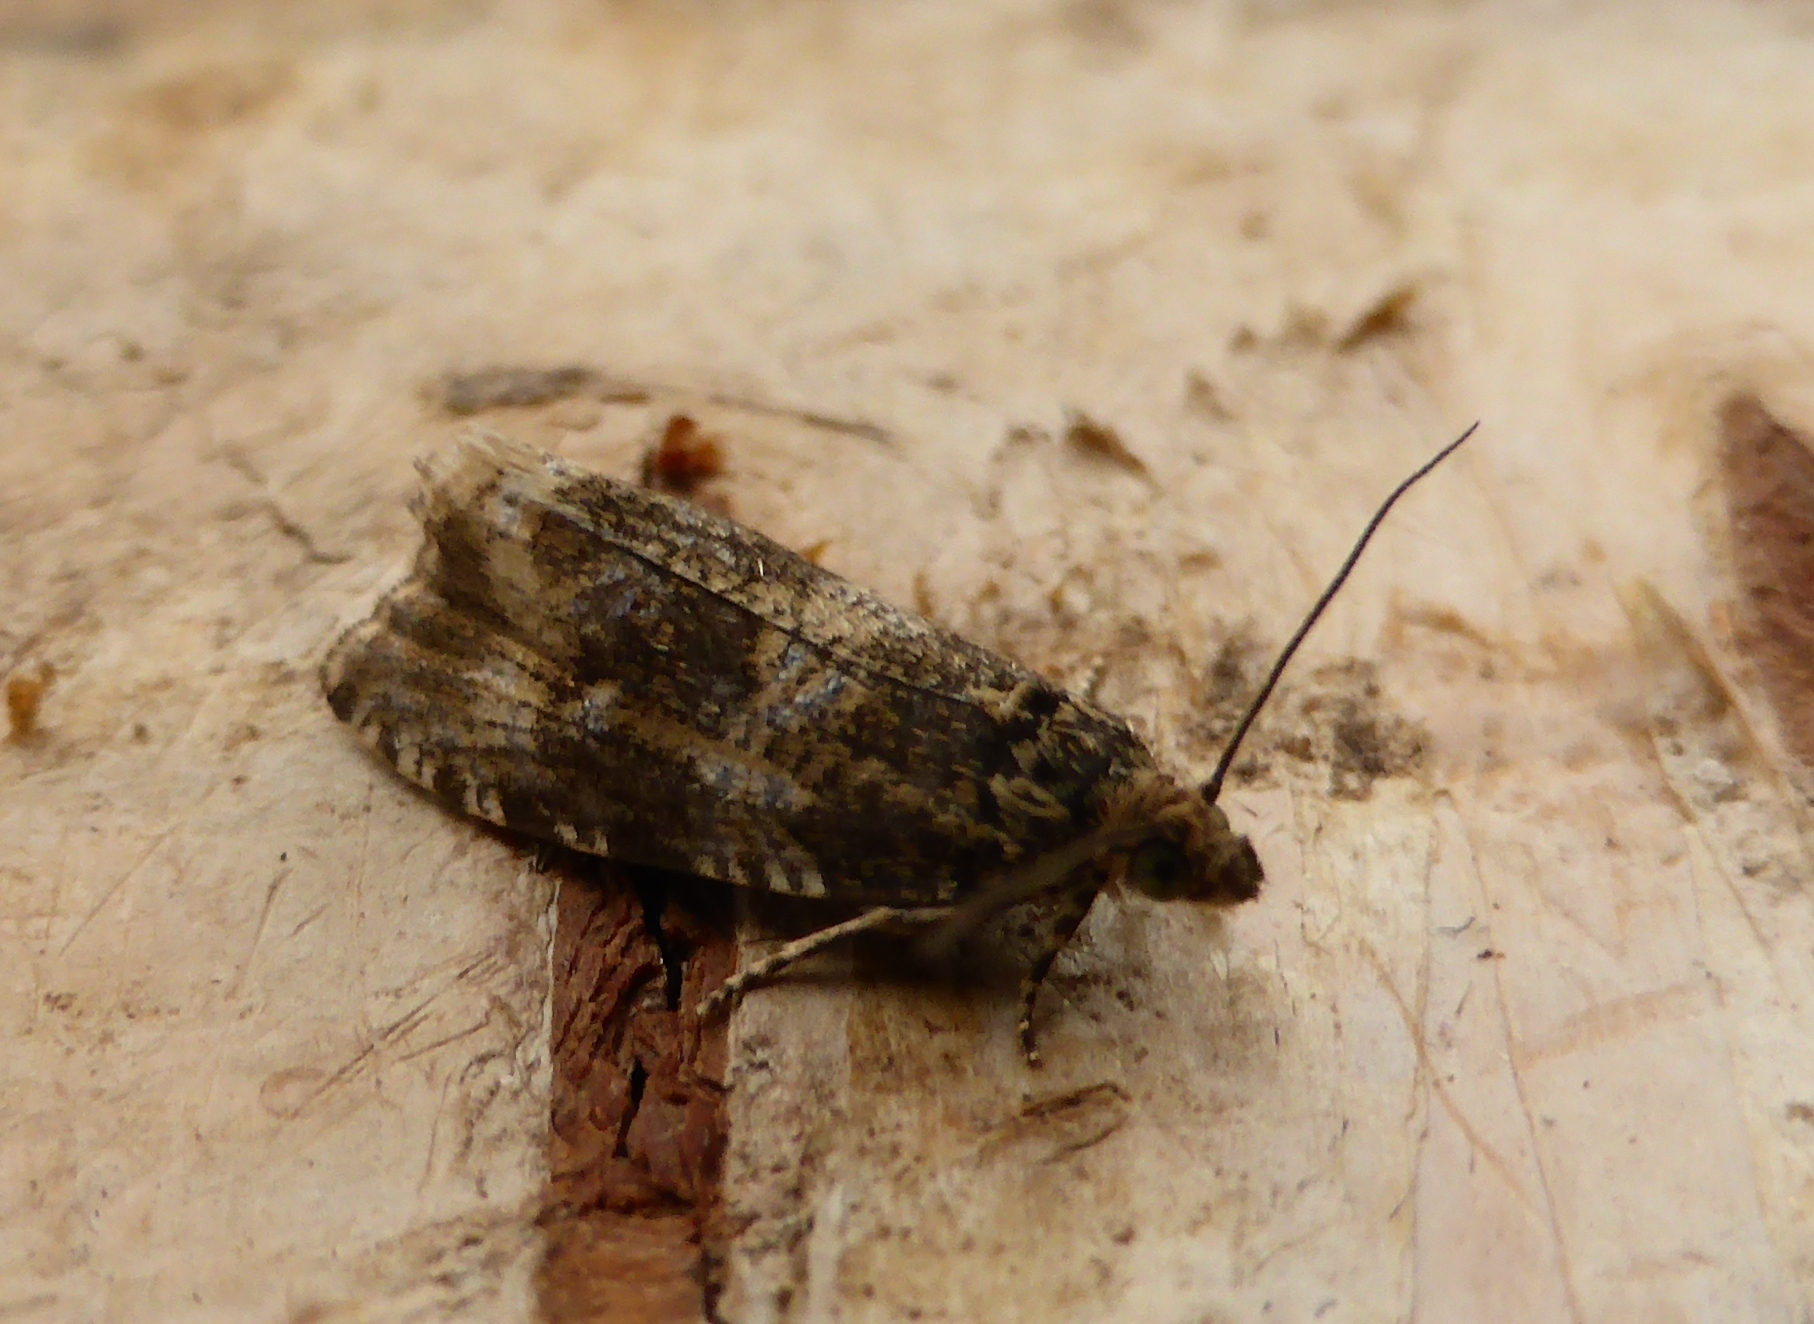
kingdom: Animalia
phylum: Arthropoda
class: Insecta
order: Lepidoptera
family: Tortricidae
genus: Syricoris
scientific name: Syricoris lacunana
